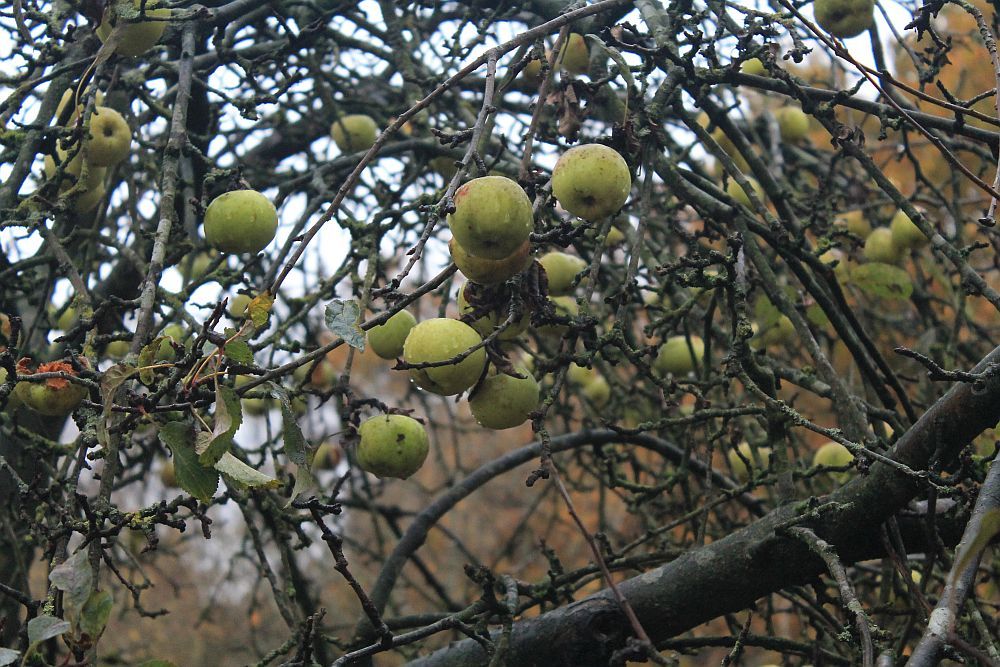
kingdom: Plantae
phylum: Tracheophyta
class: Magnoliopsida
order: Rosales
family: Rosaceae
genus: Malus
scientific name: Malus domestica
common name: Apple
